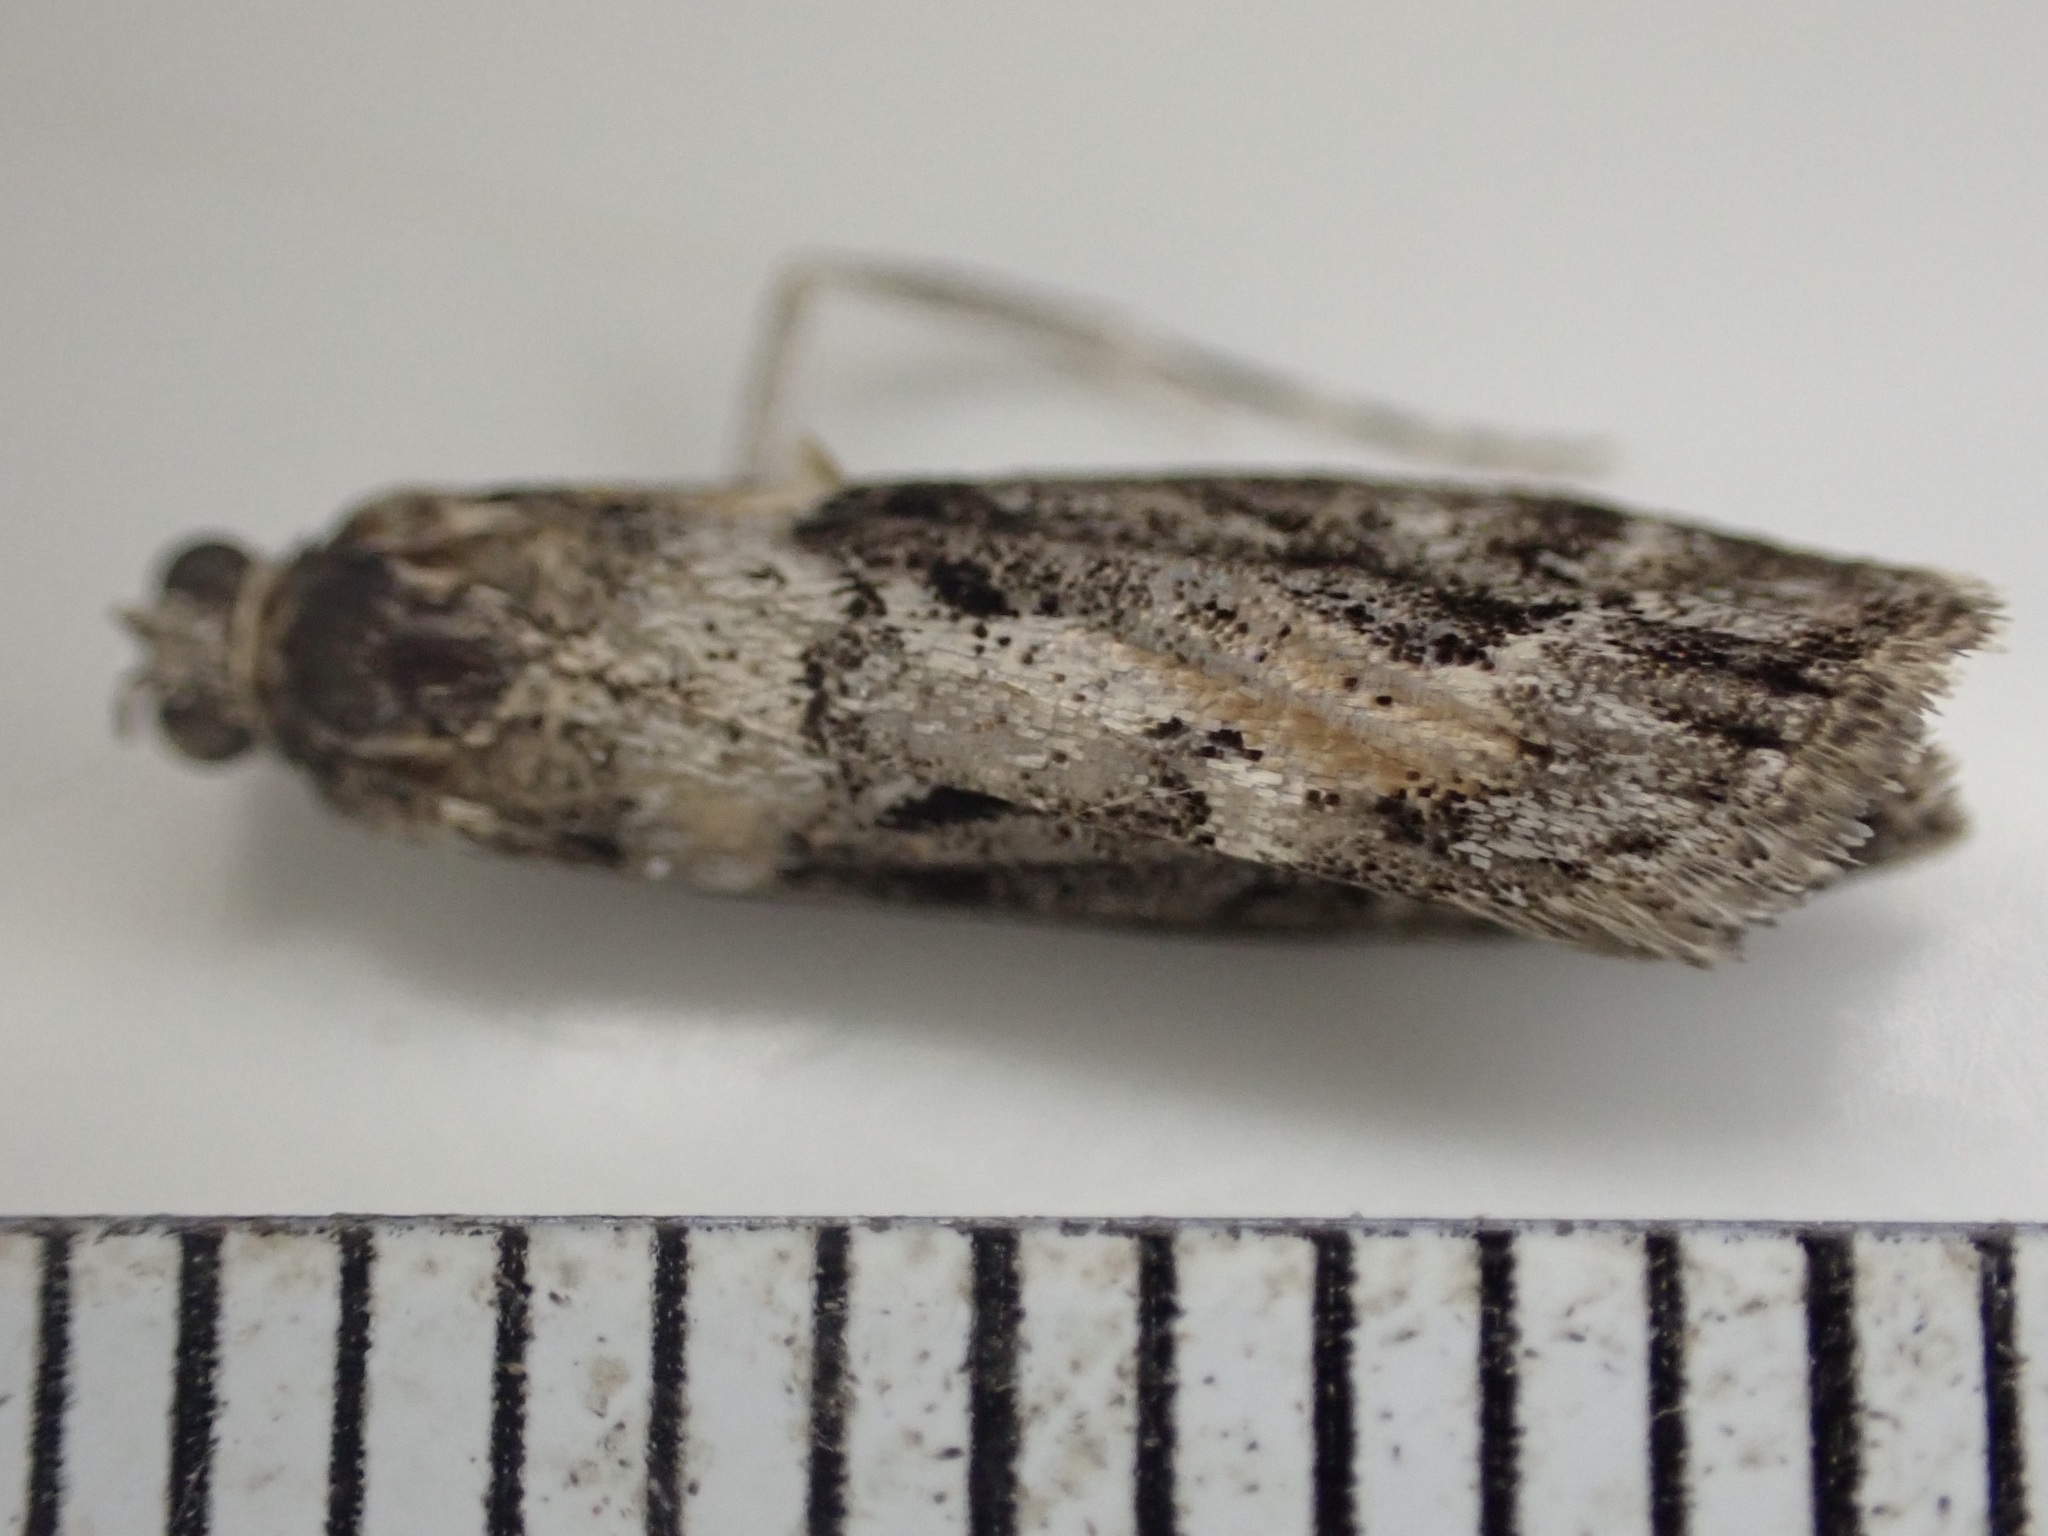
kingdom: Animalia
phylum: Arthropoda
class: Insecta
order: Lepidoptera
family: Crambidae
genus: Eudonia
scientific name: Eudonia submarginalis
